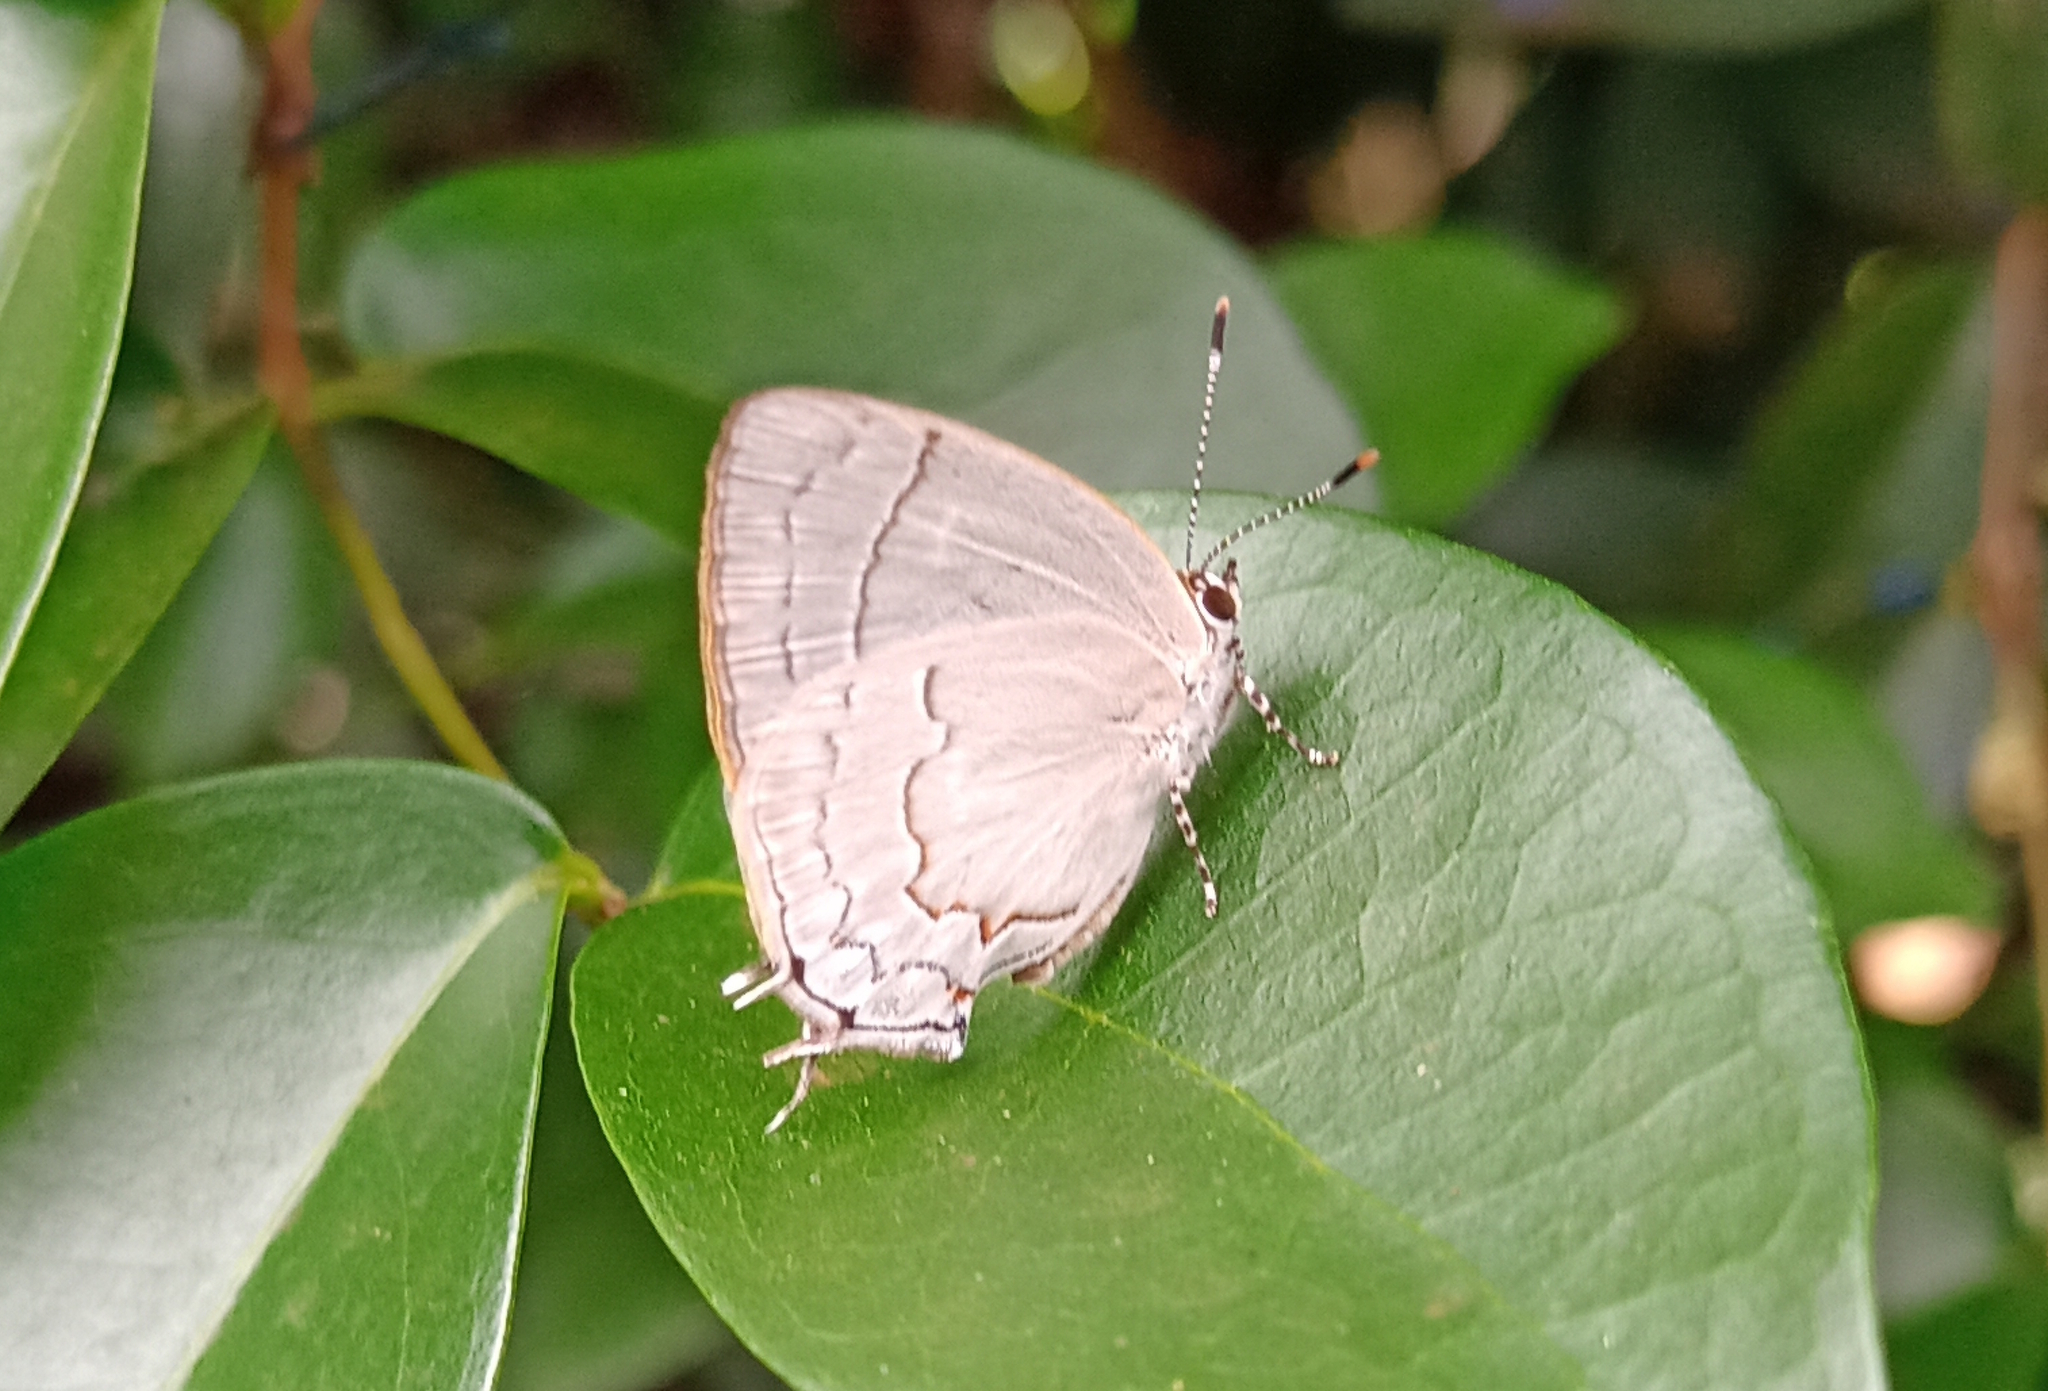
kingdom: Animalia
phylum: Arthropoda
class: Insecta
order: Lepidoptera
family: Lycaenidae
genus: Symbiopsis
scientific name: Symbiopsis lenitas
